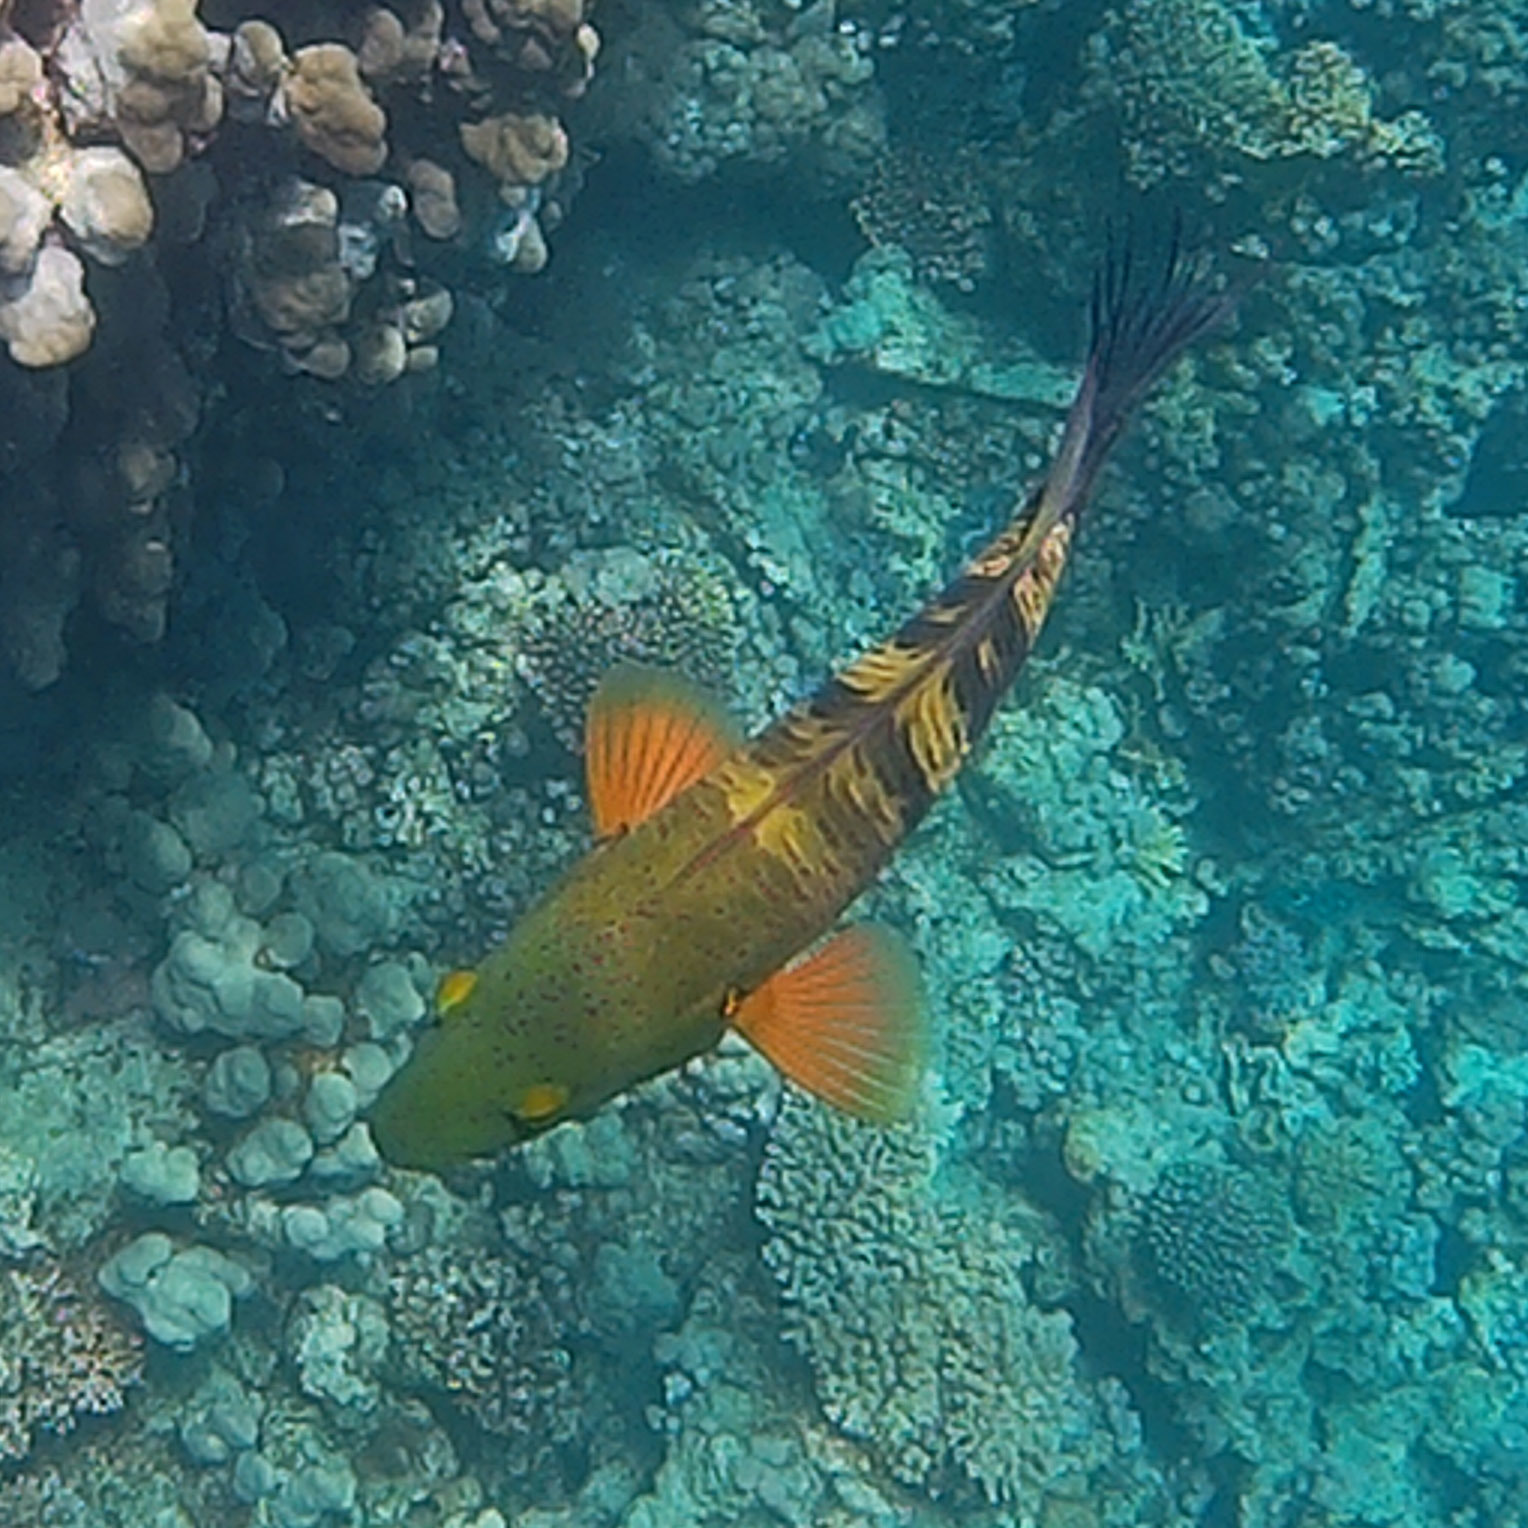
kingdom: Animalia
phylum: Chordata
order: Perciformes
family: Labridae
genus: Cheilinus
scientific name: Cheilinus lunulatus
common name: Broomtail wrasse
